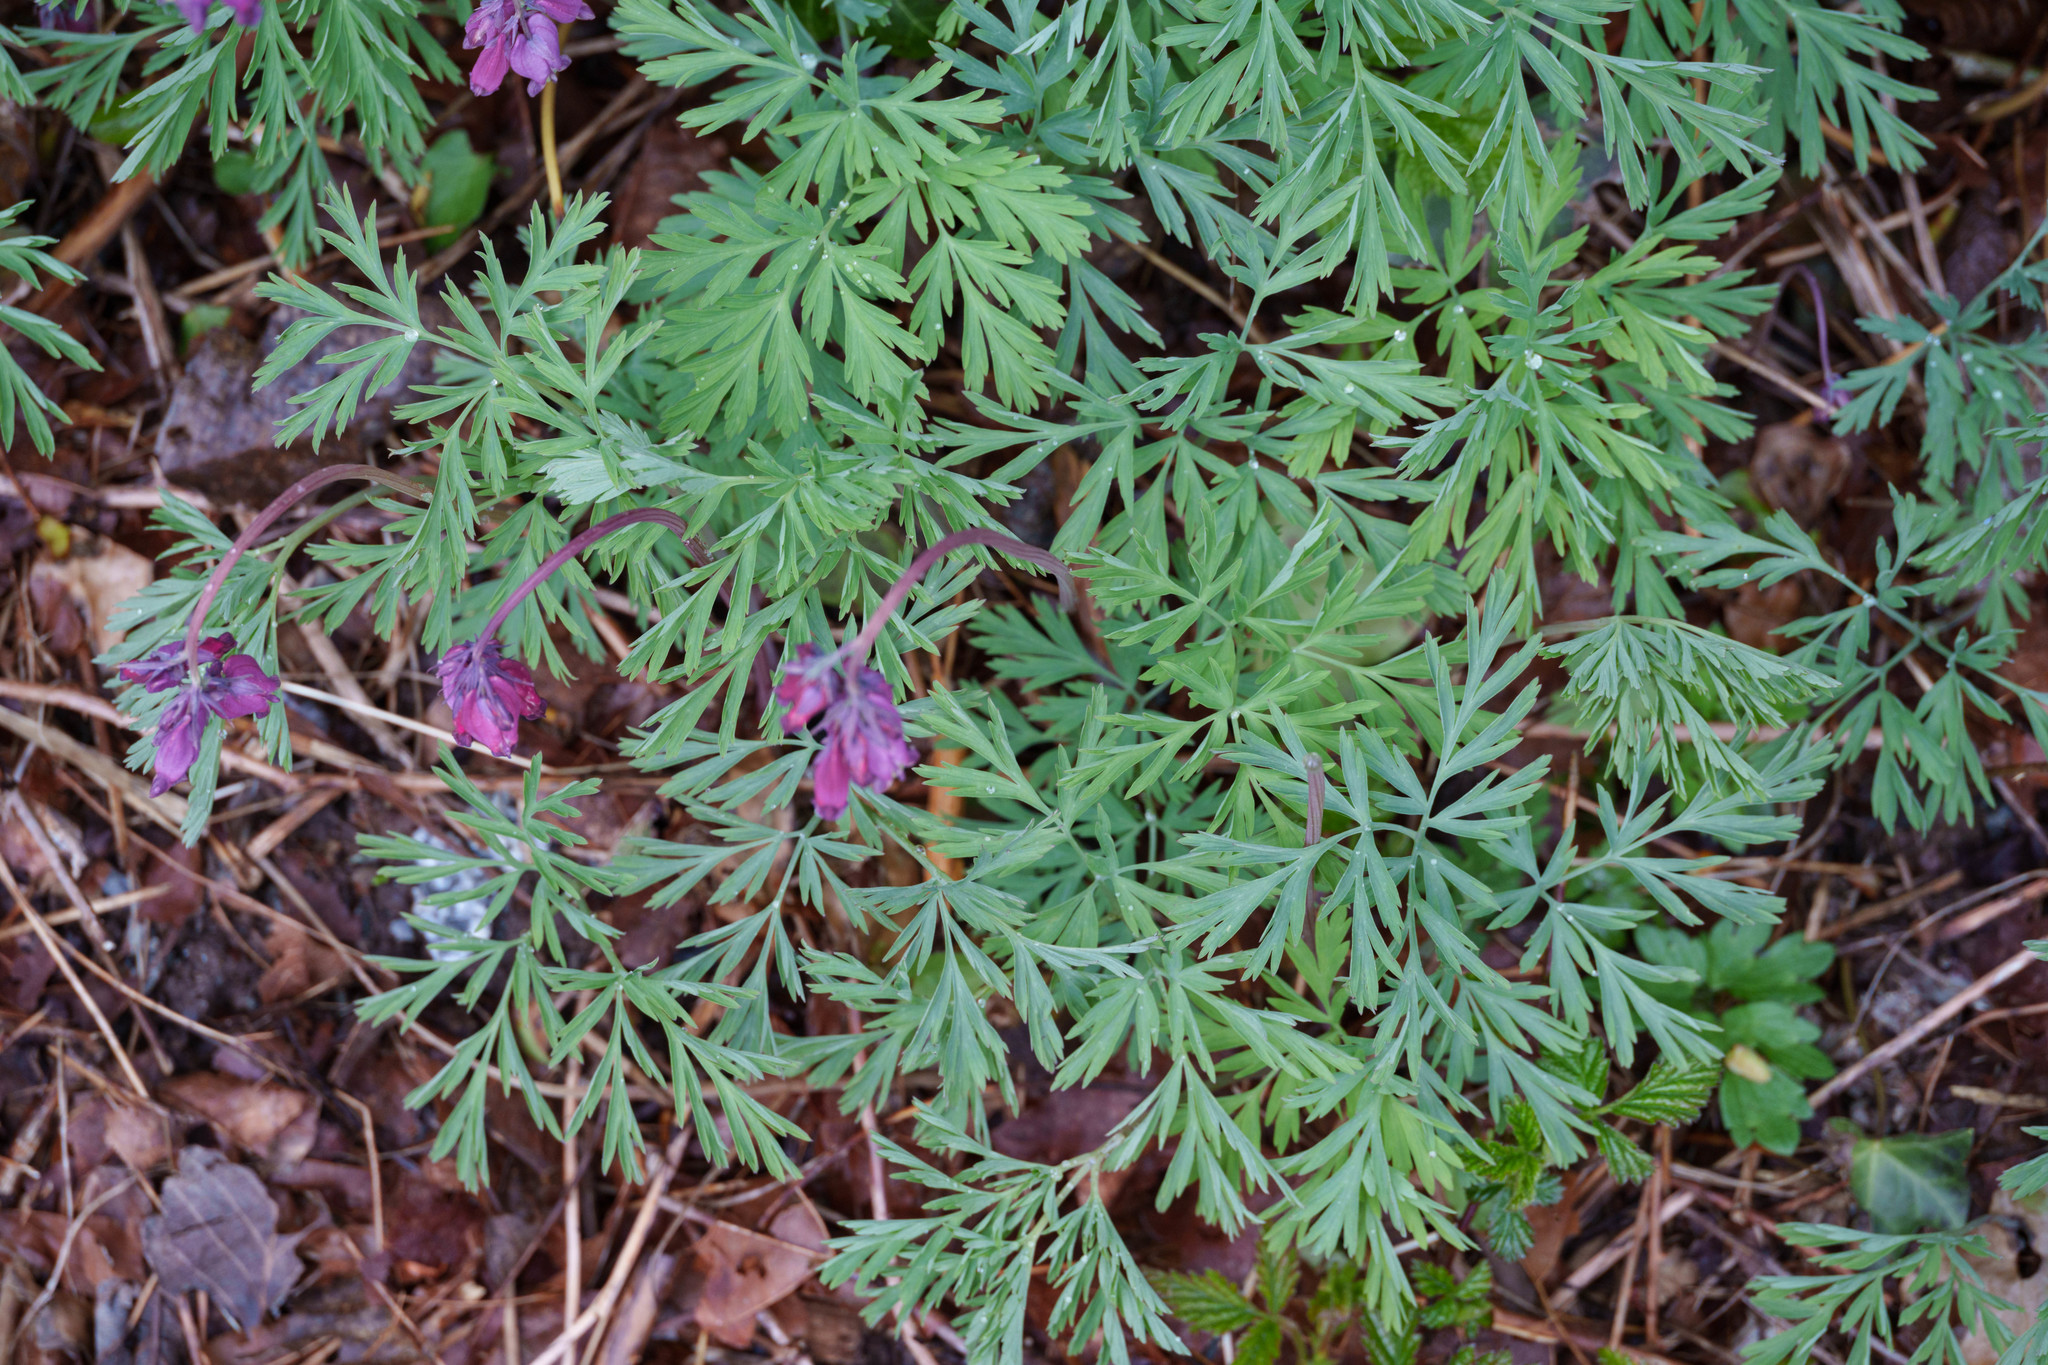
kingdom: Plantae
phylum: Tracheophyta
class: Magnoliopsida
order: Ranunculales
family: Papaveraceae
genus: Dicentra
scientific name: Dicentra formosa
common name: Bleeding-heart
